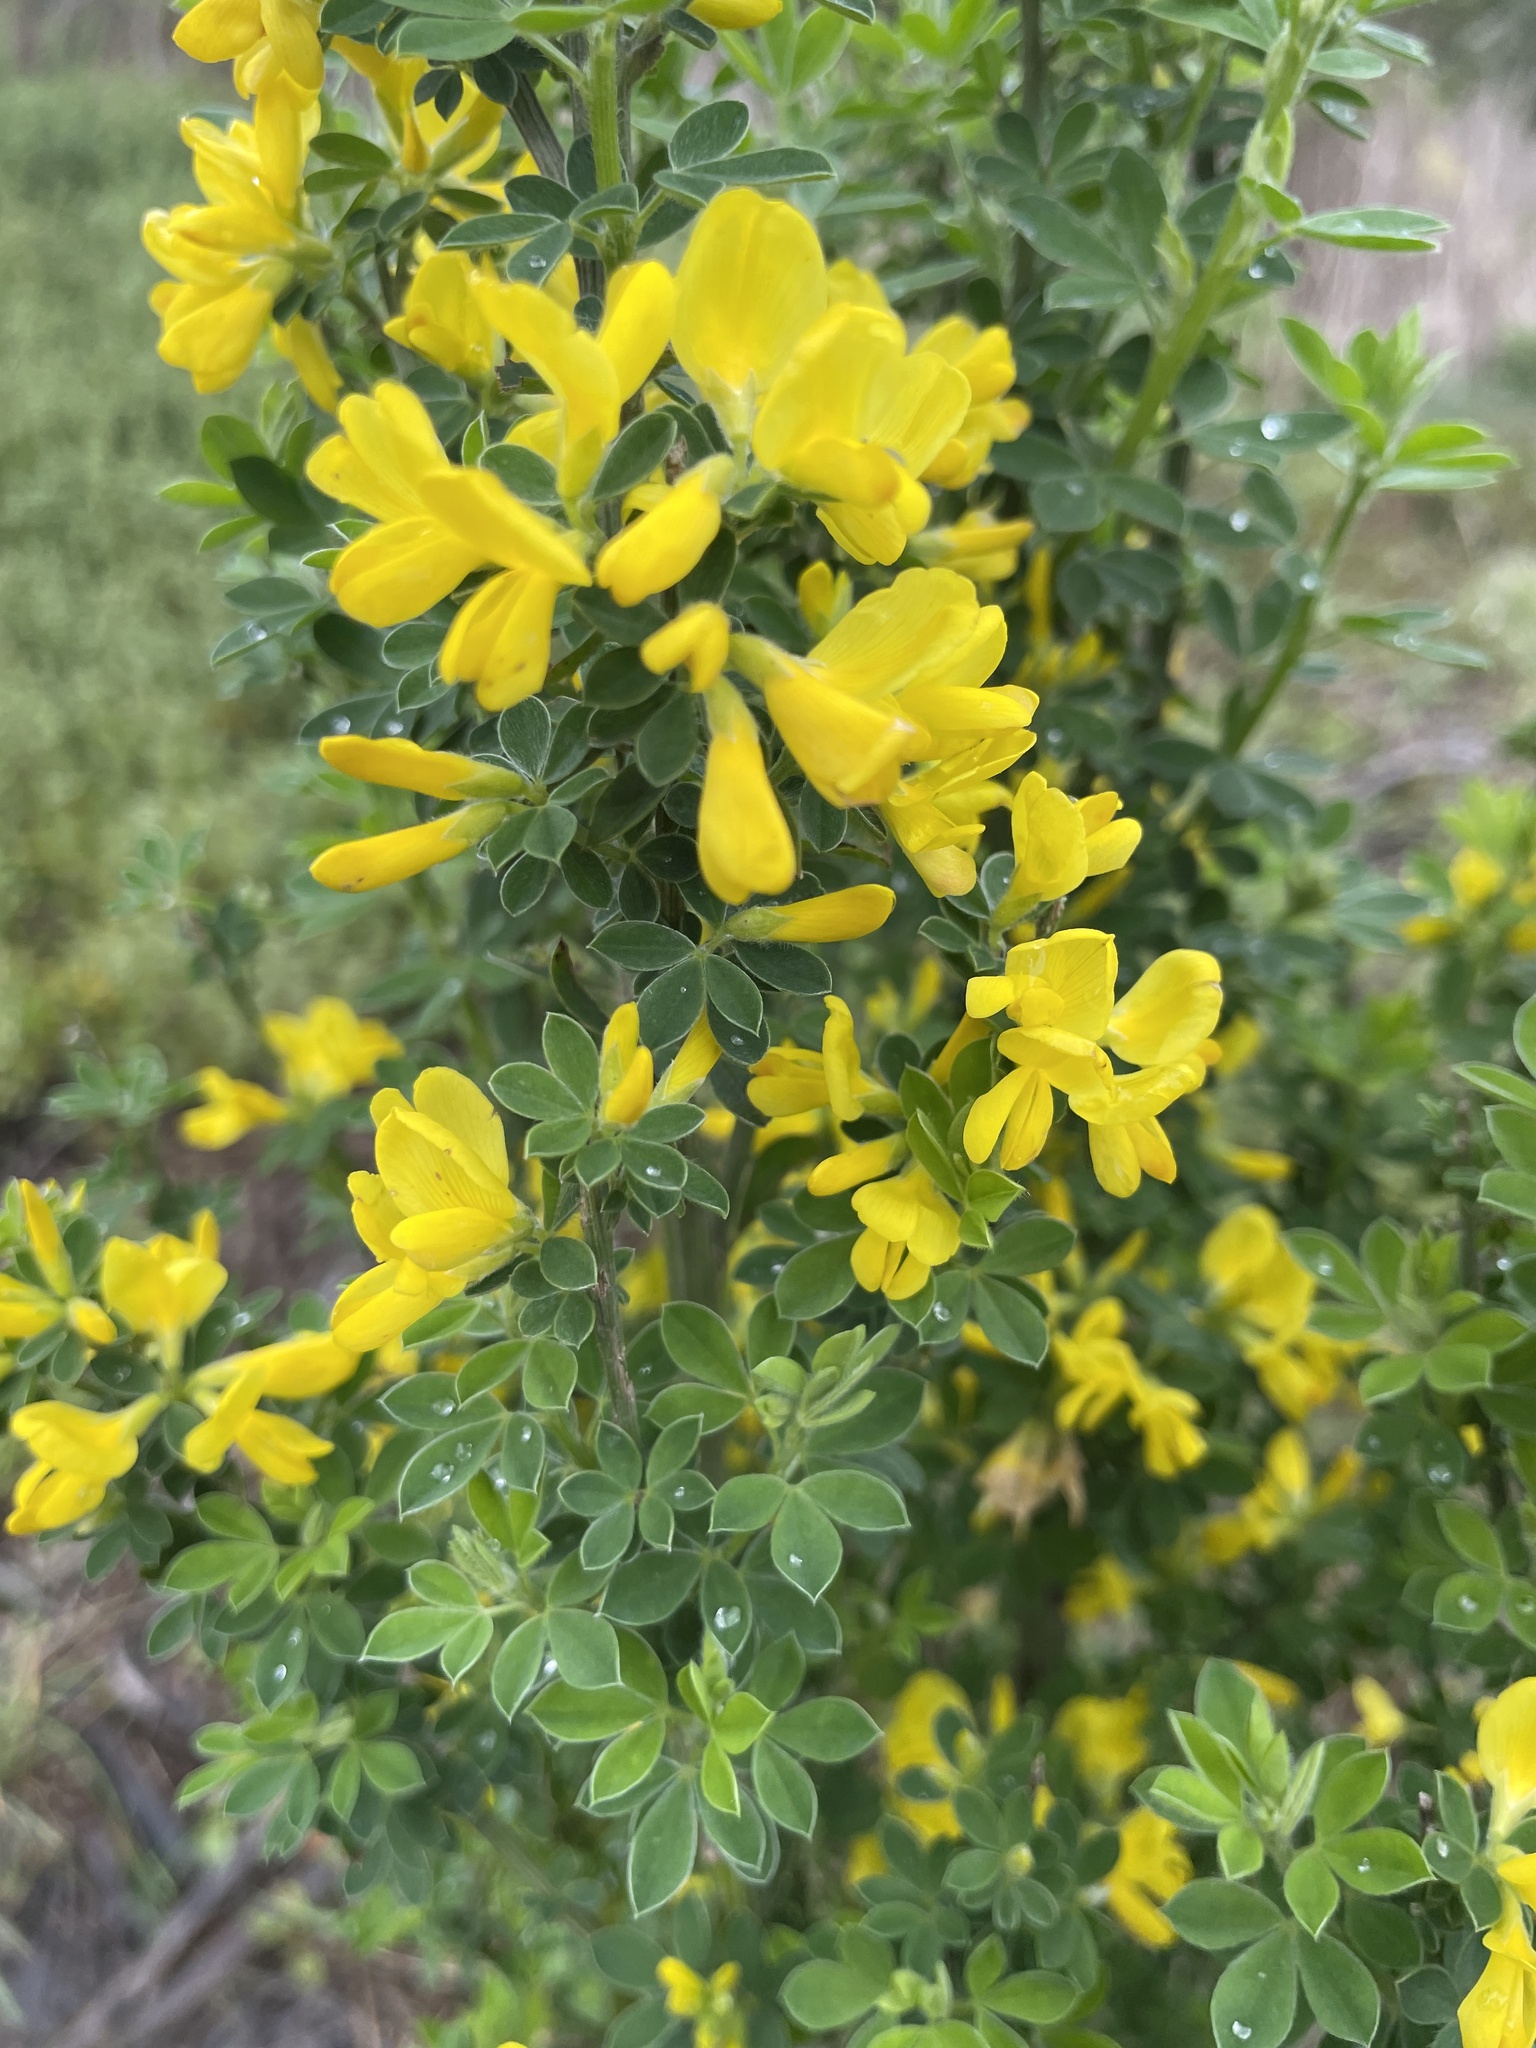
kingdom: Plantae
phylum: Tracheophyta
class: Magnoliopsida
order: Fabales
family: Fabaceae
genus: Genista
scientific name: Genista monspessulana
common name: Montpellier broom
